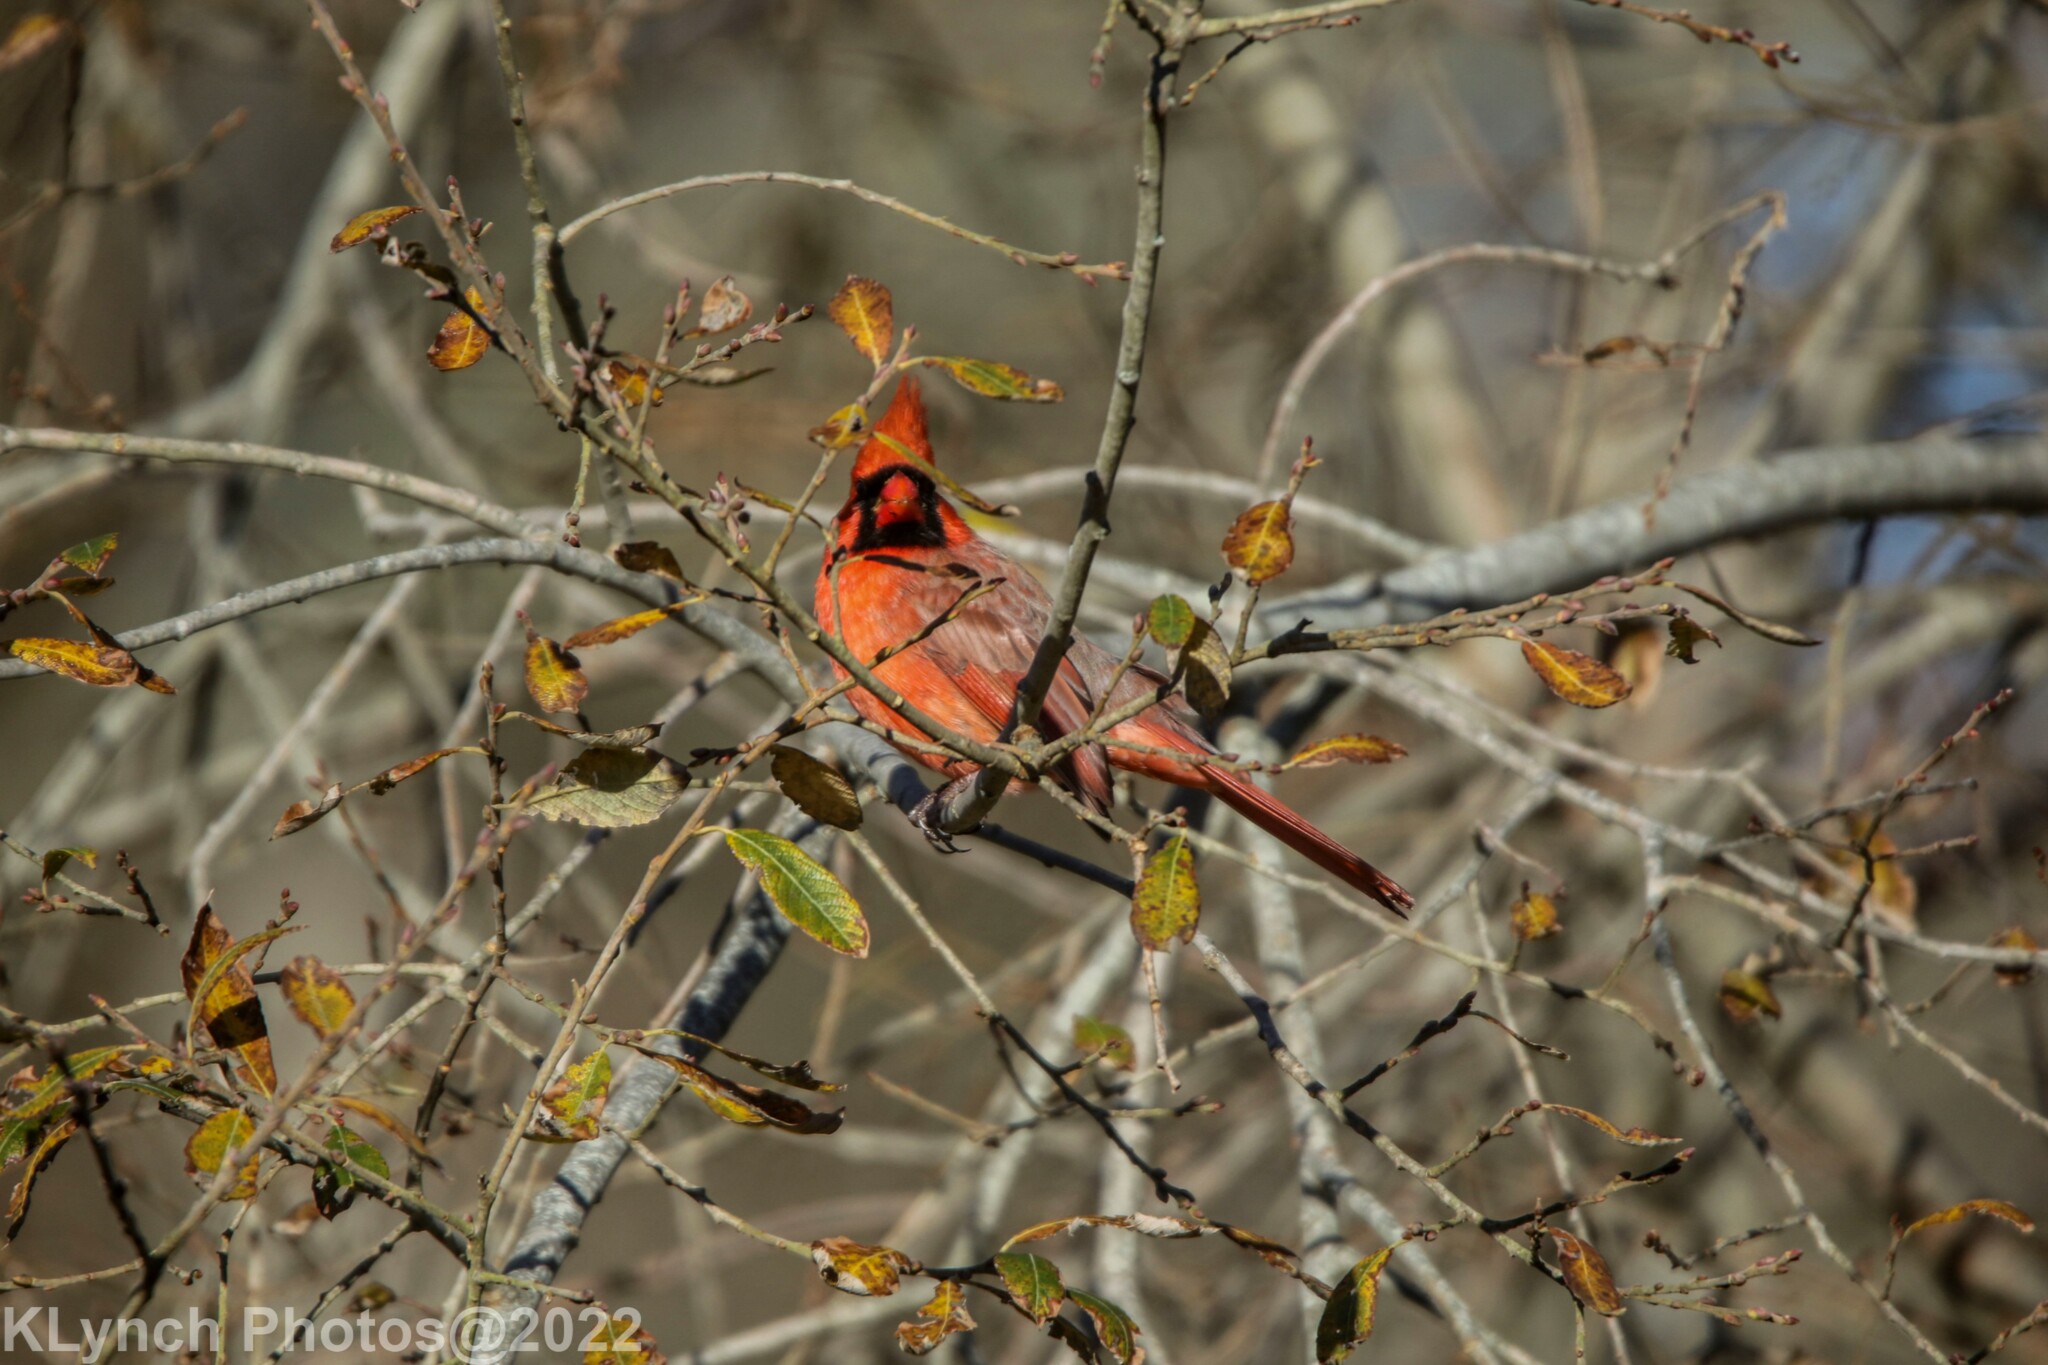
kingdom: Animalia
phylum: Chordata
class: Aves
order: Passeriformes
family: Cardinalidae
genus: Cardinalis
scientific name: Cardinalis cardinalis
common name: Northern cardinal
